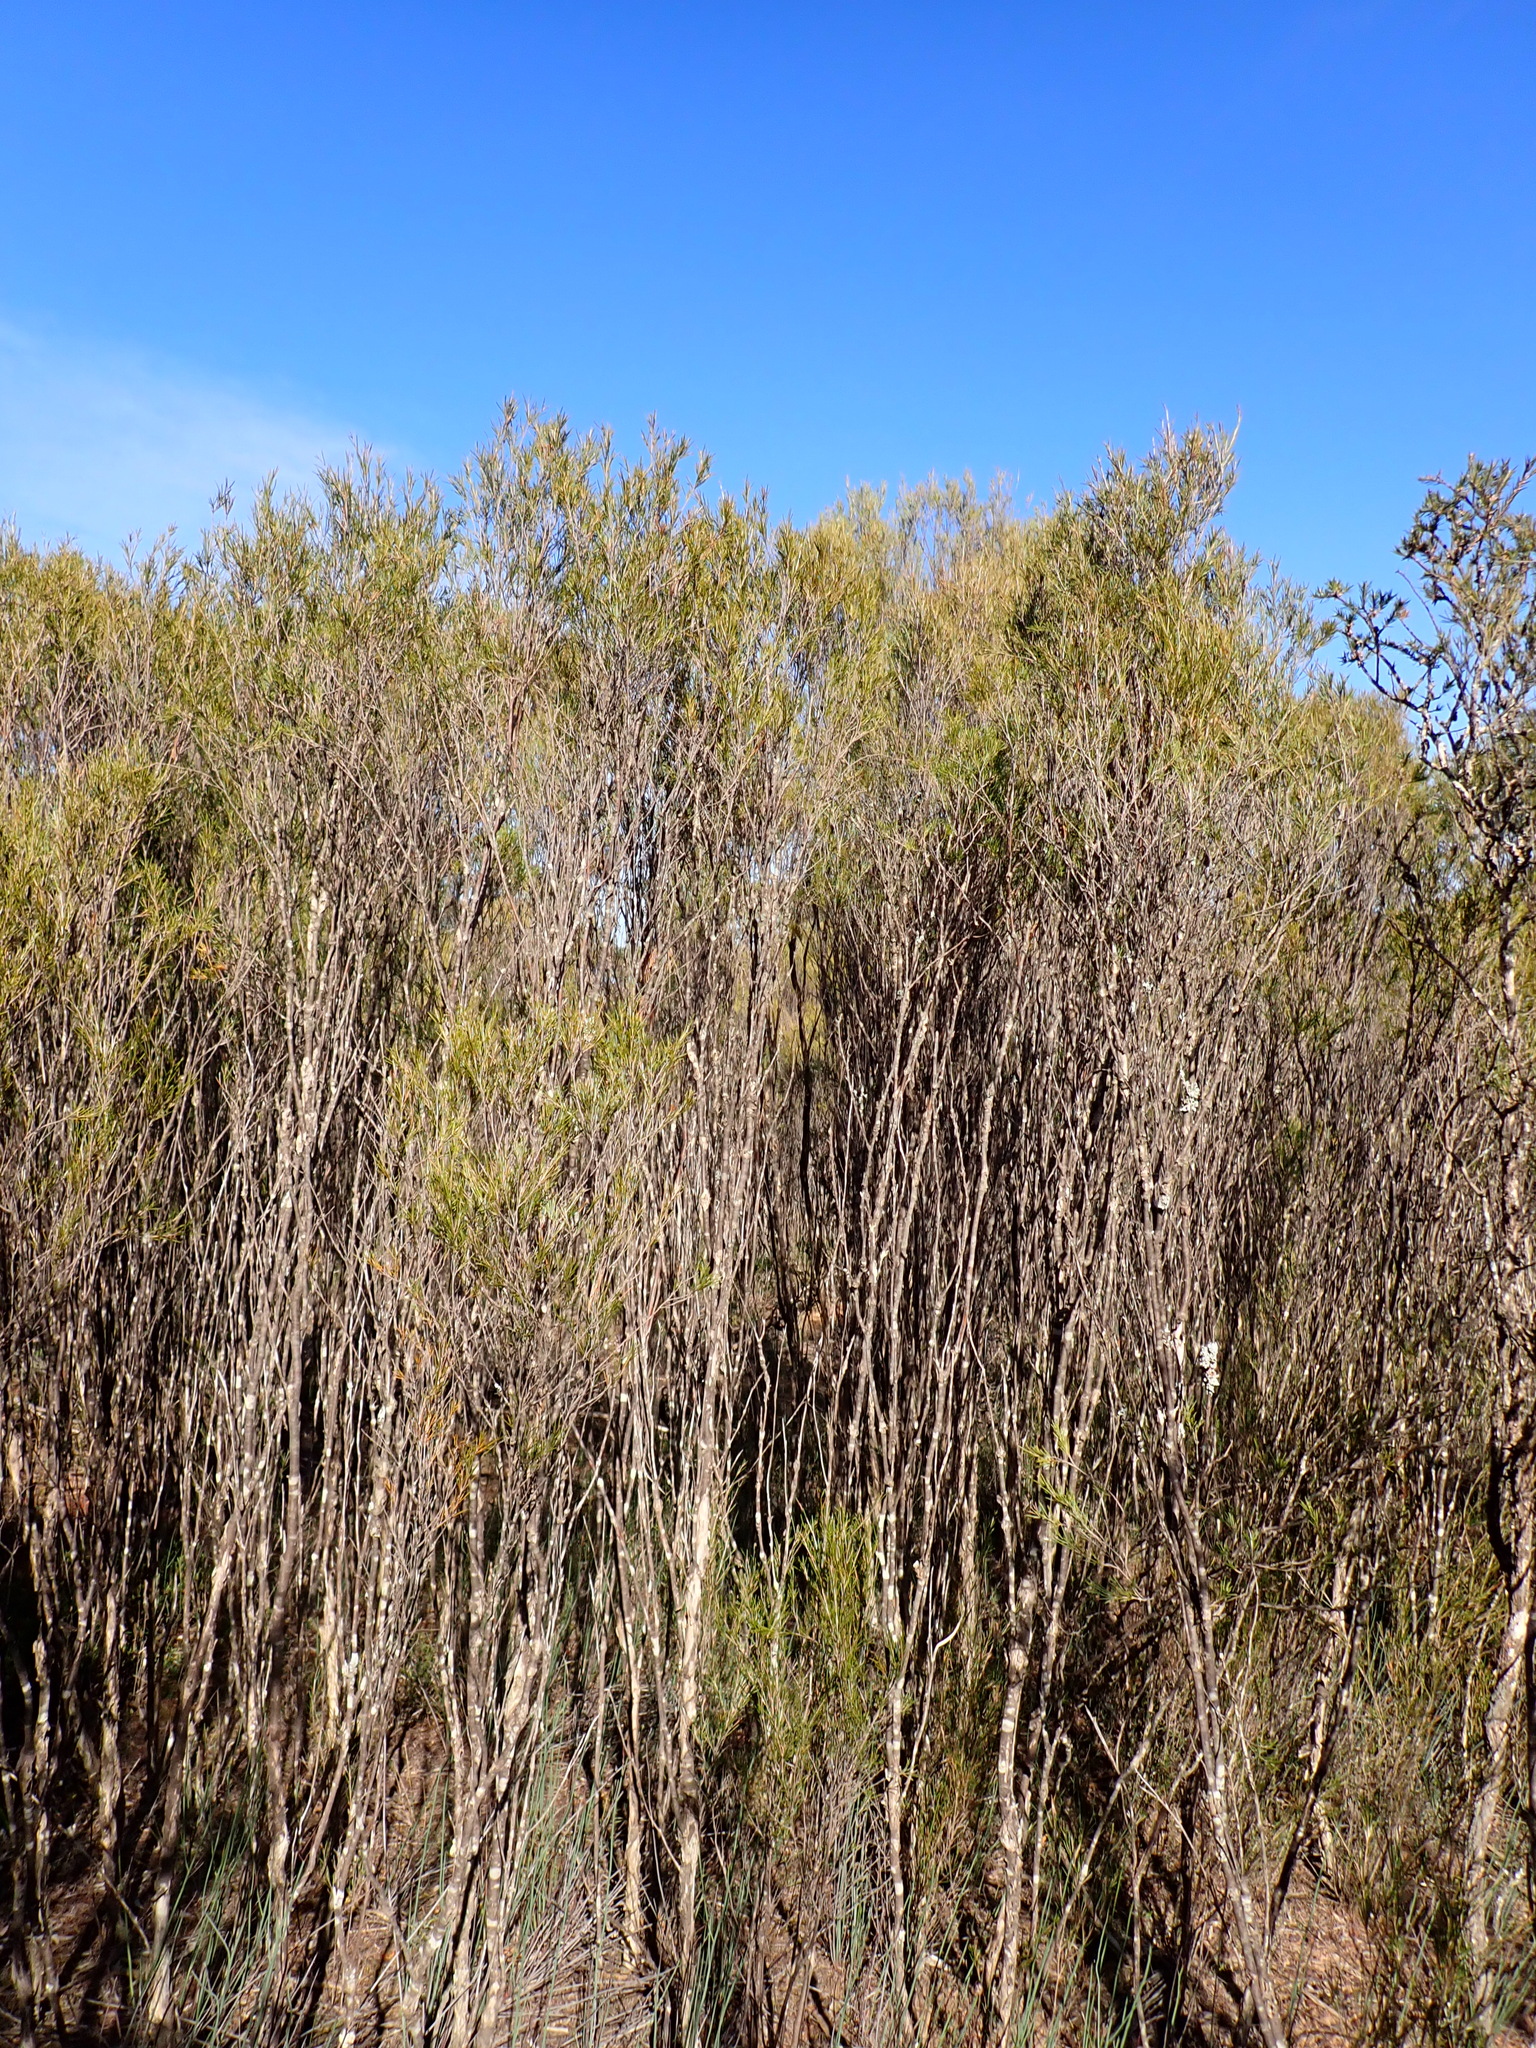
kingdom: Plantae
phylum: Tracheophyta
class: Magnoliopsida
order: Myrtales
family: Myrtaceae
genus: Melaleuca
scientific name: Melaleuca uncinata
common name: Broom honey myrtle
